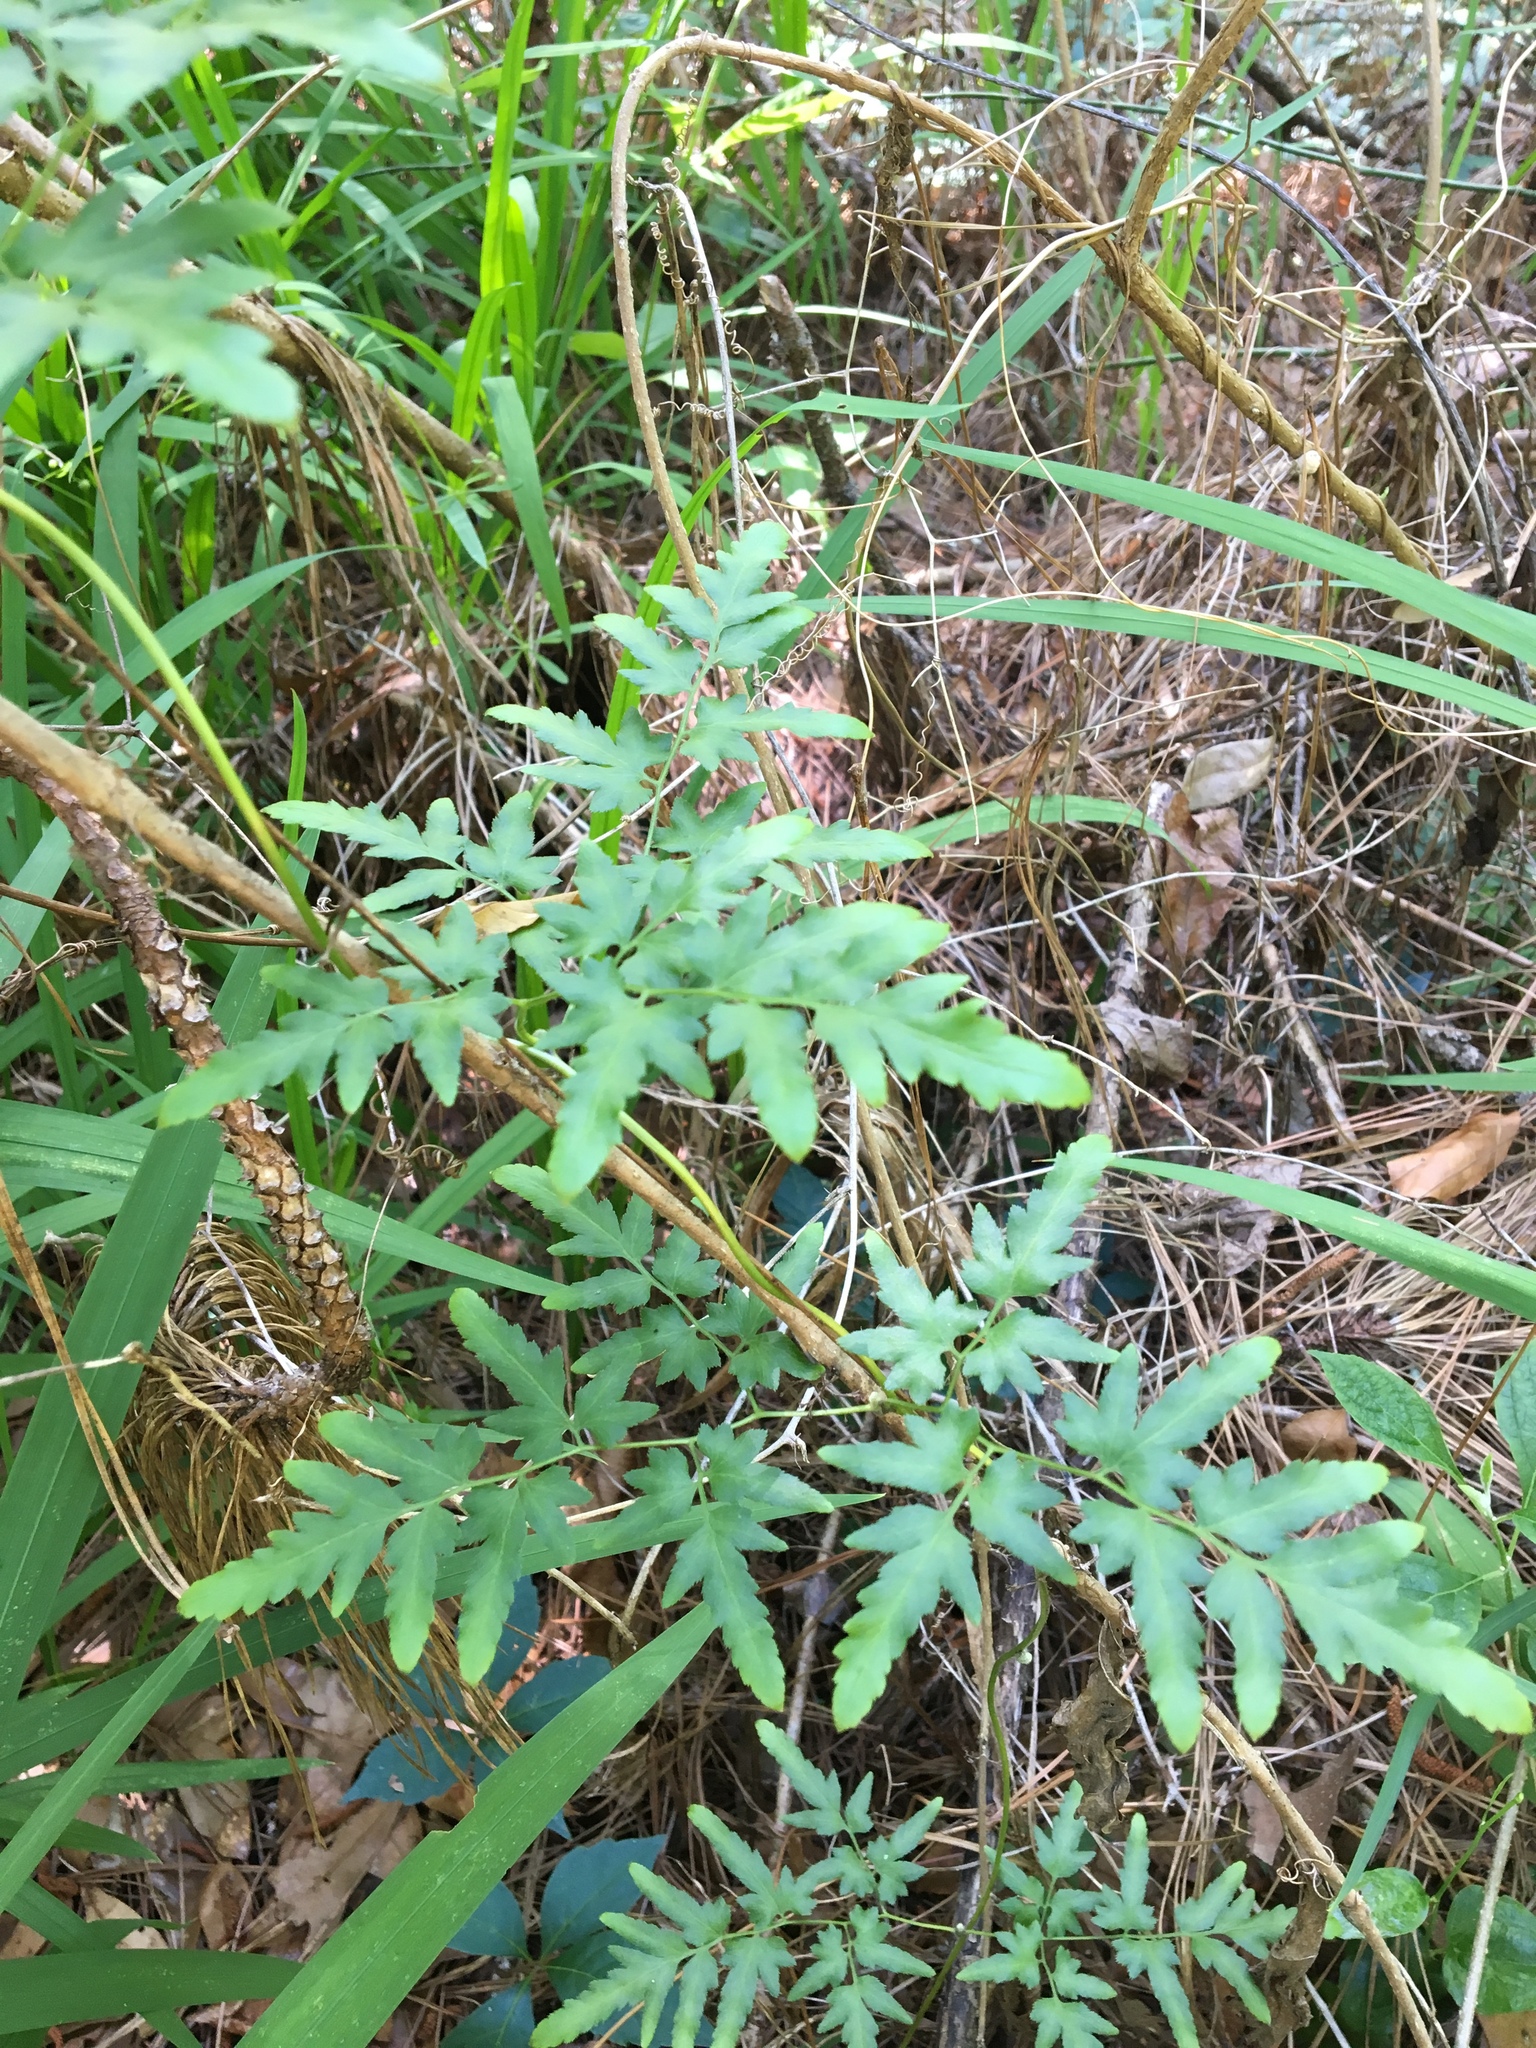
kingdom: Plantae
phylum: Tracheophyta
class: Polypodiopsida
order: Schizaeales
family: Lygodiaceae
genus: Lygodium
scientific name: Lygodium japonicum
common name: Japanese climbing fern
